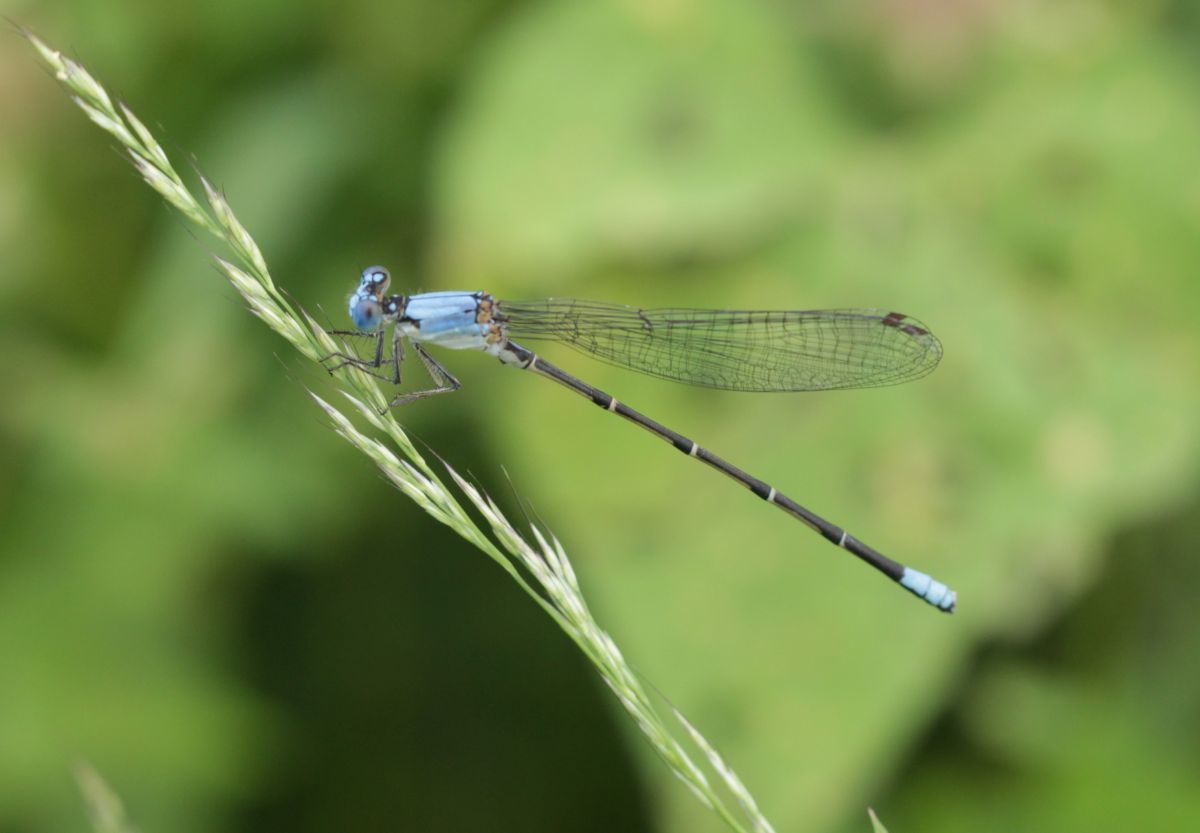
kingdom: Animalia
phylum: Arthropoda
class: Insecta
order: Odonata
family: Coenagrionidae
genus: Argia
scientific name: Argia apicalis
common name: Blue-fronted dancer
